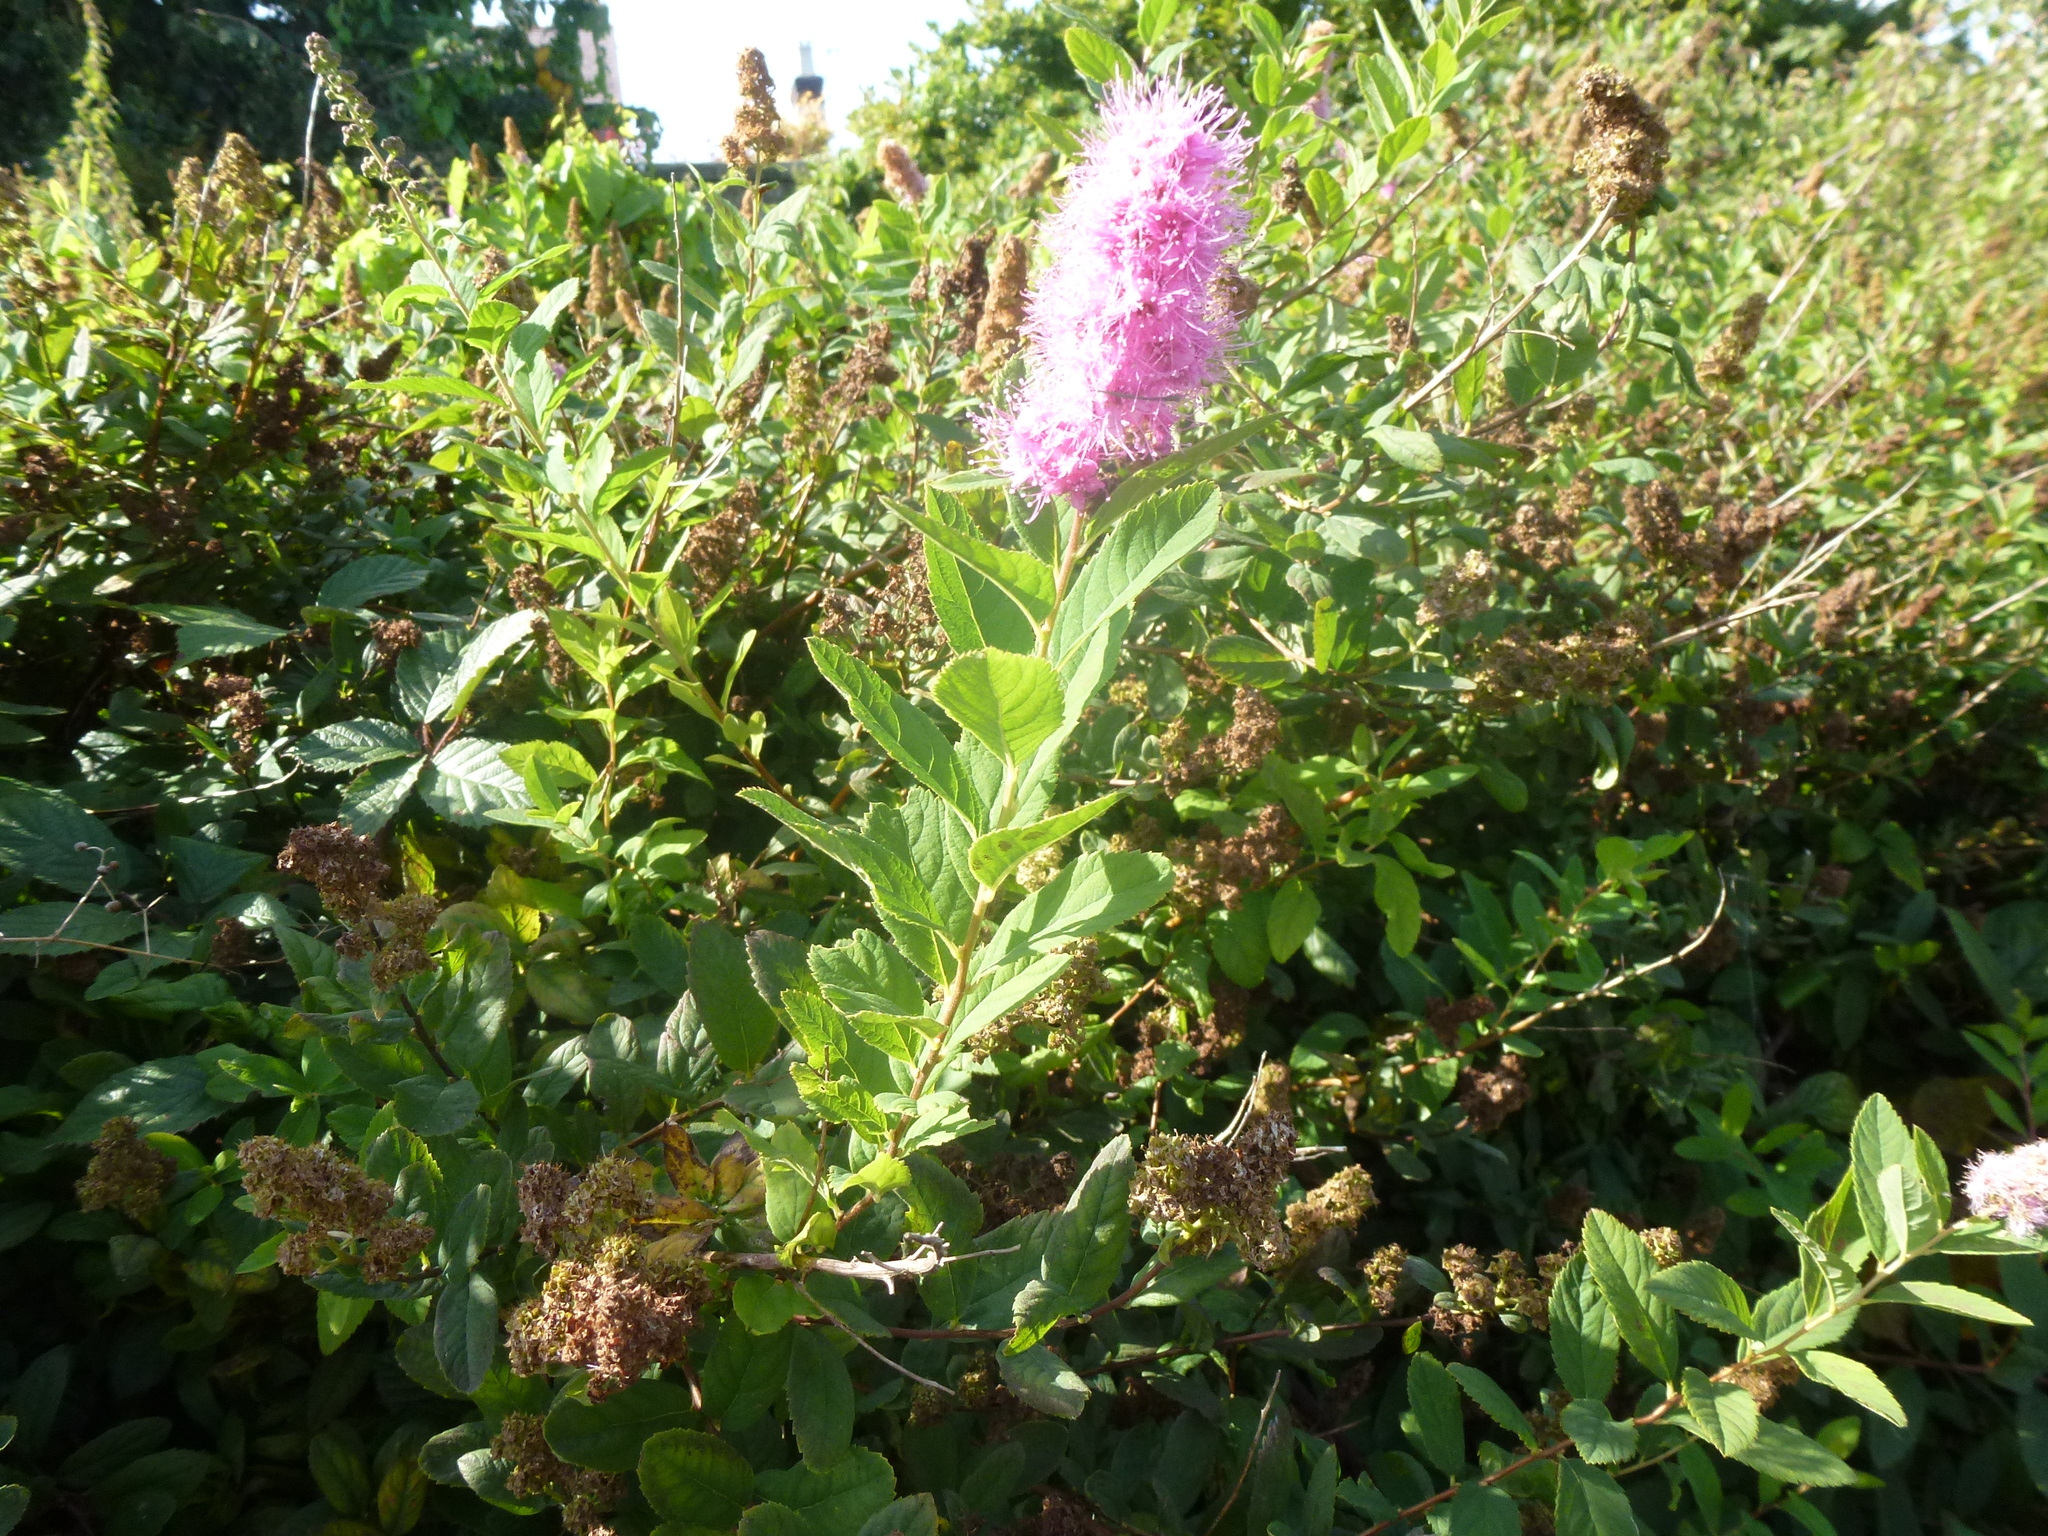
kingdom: Plantae
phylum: Tracheophyta
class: Magnoliopsida
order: Rosales
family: Rosaceae
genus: Spiraea
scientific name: Spiraea douglasii
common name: Steeplebush
